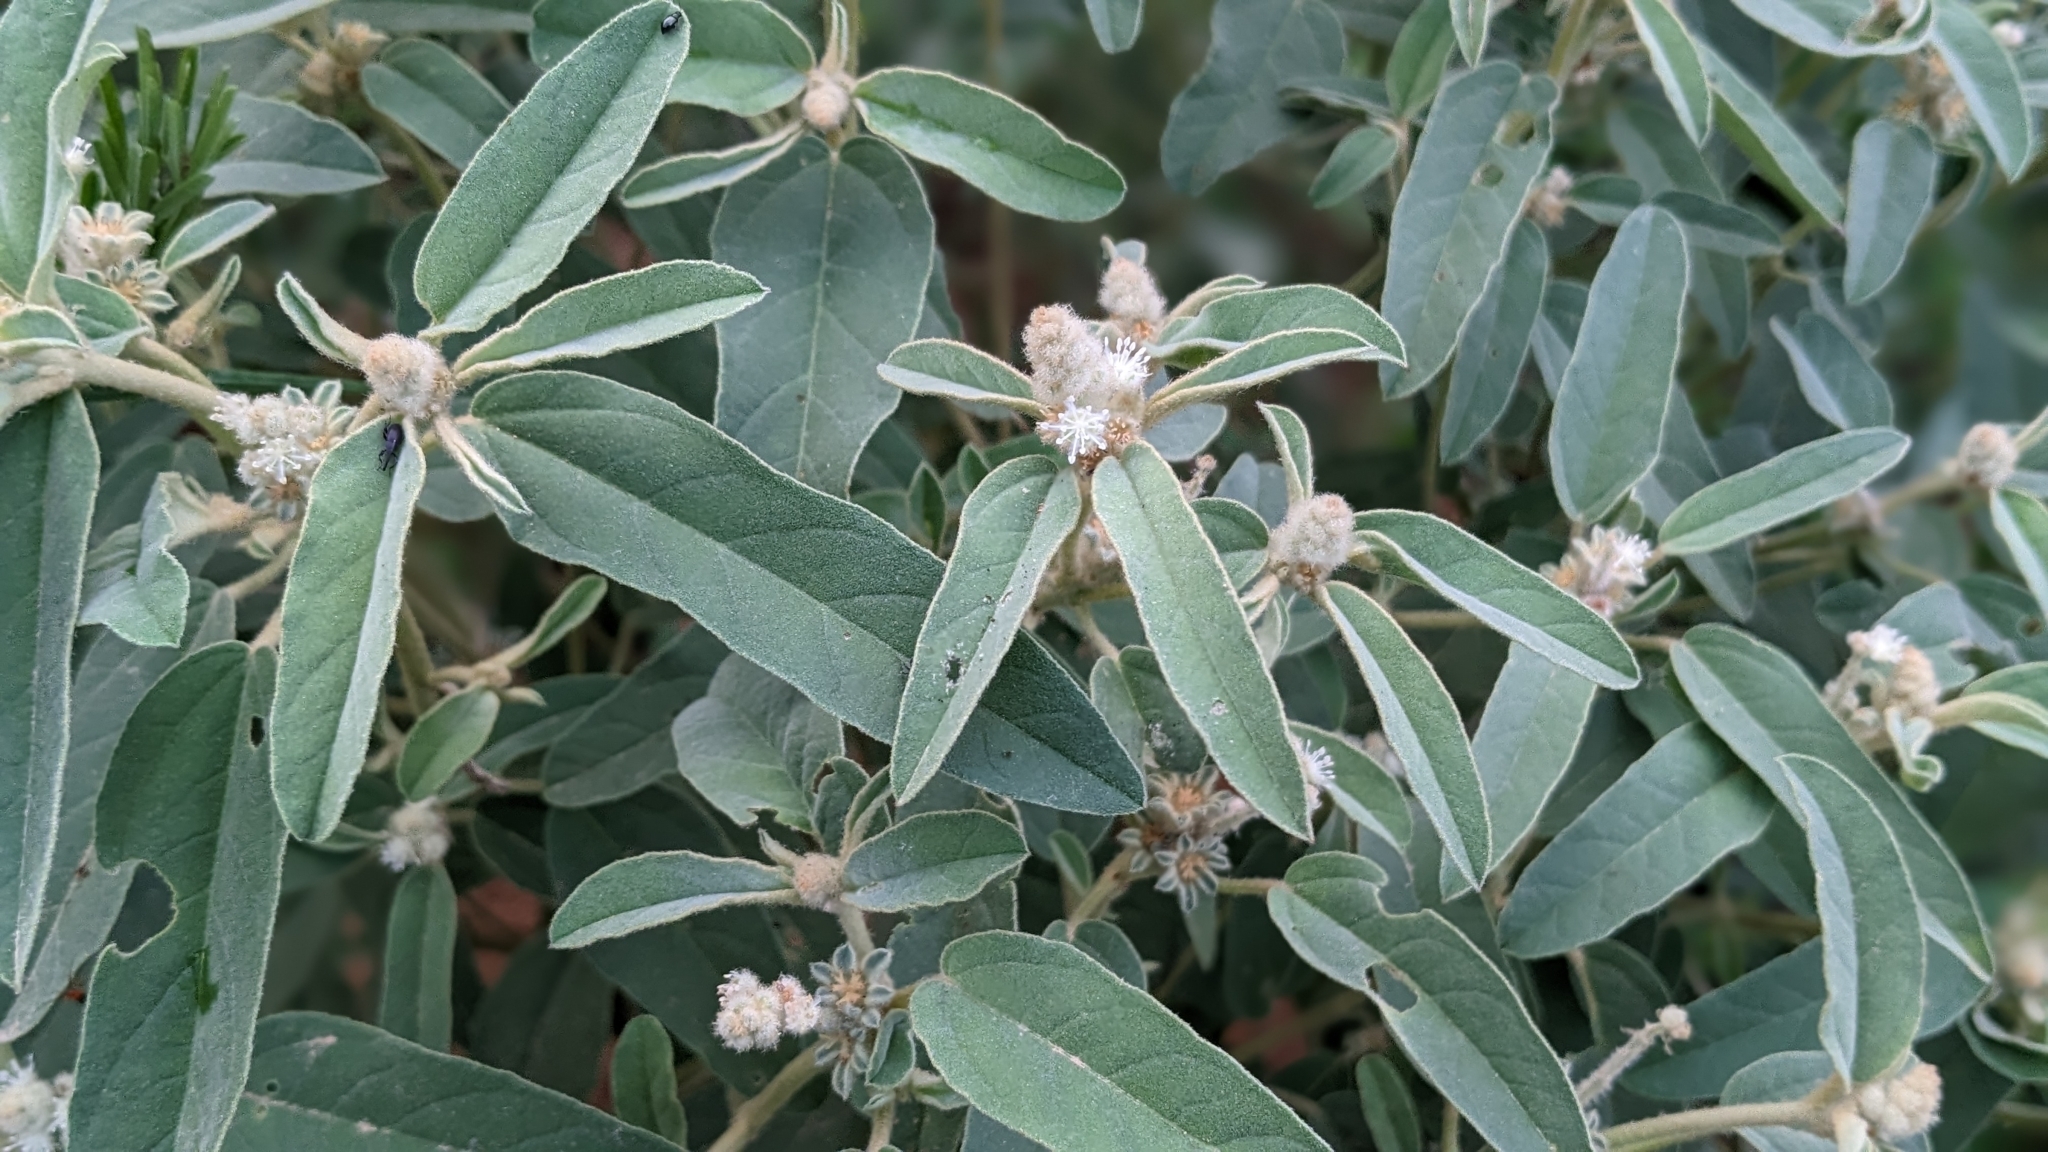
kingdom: Plantae
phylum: Tracheophyta
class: Magnoliopsida
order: Malpighiales
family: Euphorbiaceae
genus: Croton
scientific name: Croton capitatus
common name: Woolly croton
